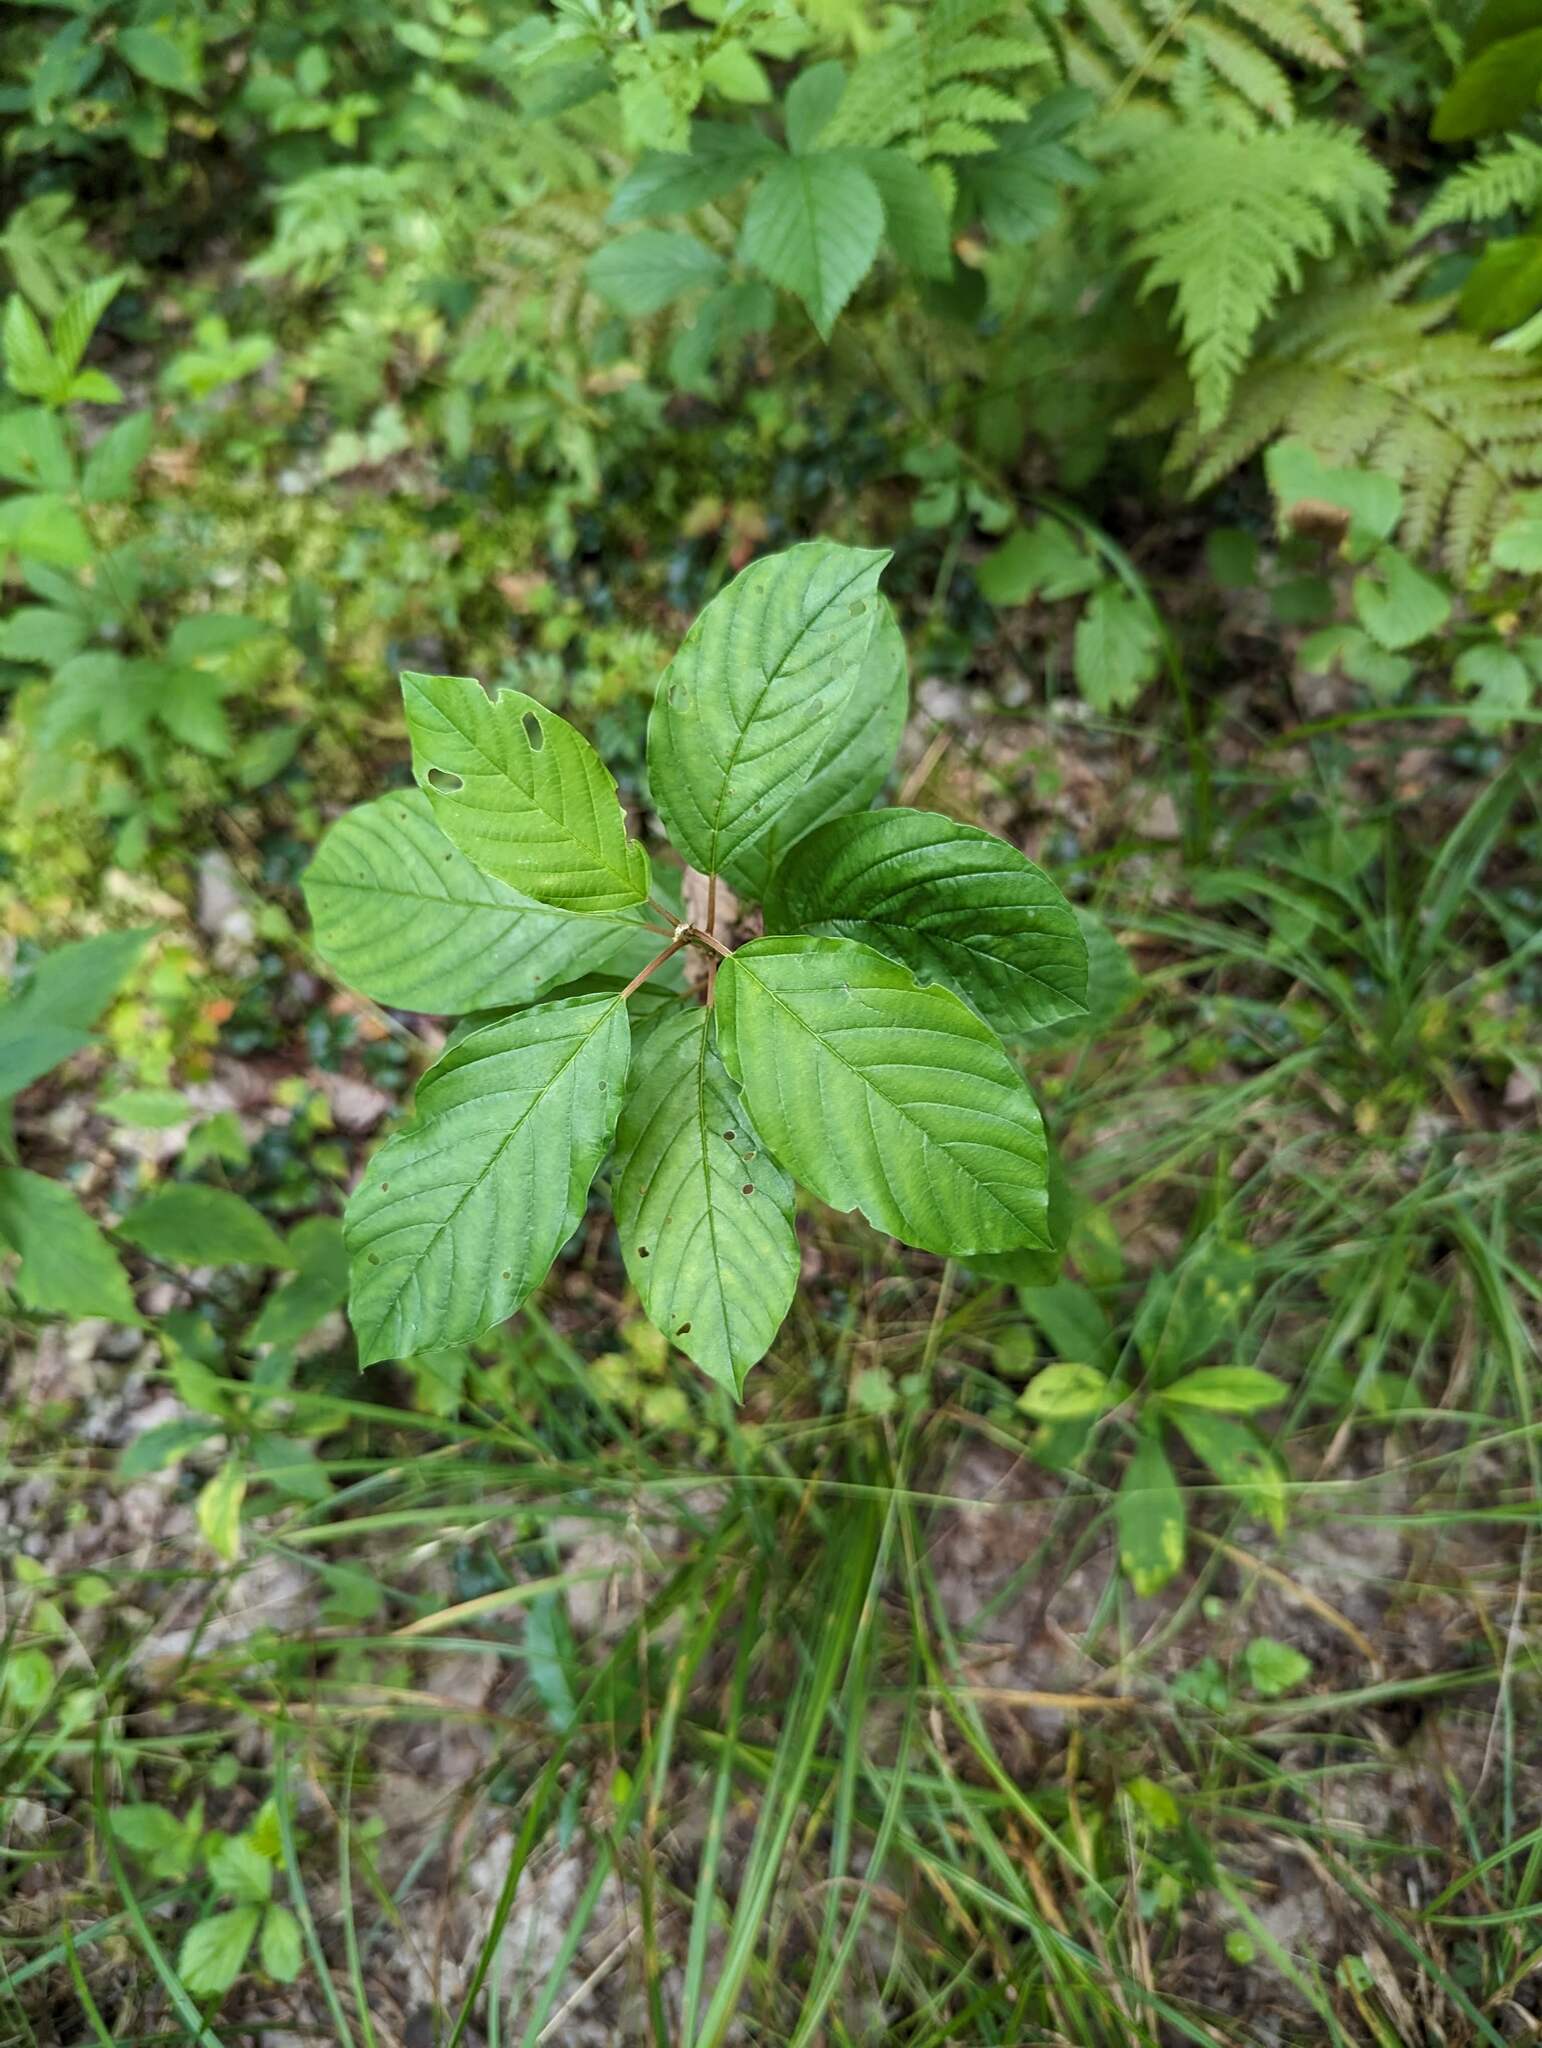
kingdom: Plantae
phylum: Tracheophyta
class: Magnoliopsida
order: Rosales
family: Rhamnaceae
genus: Frangula
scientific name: Frangula alnus
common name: Alder buckthorn
